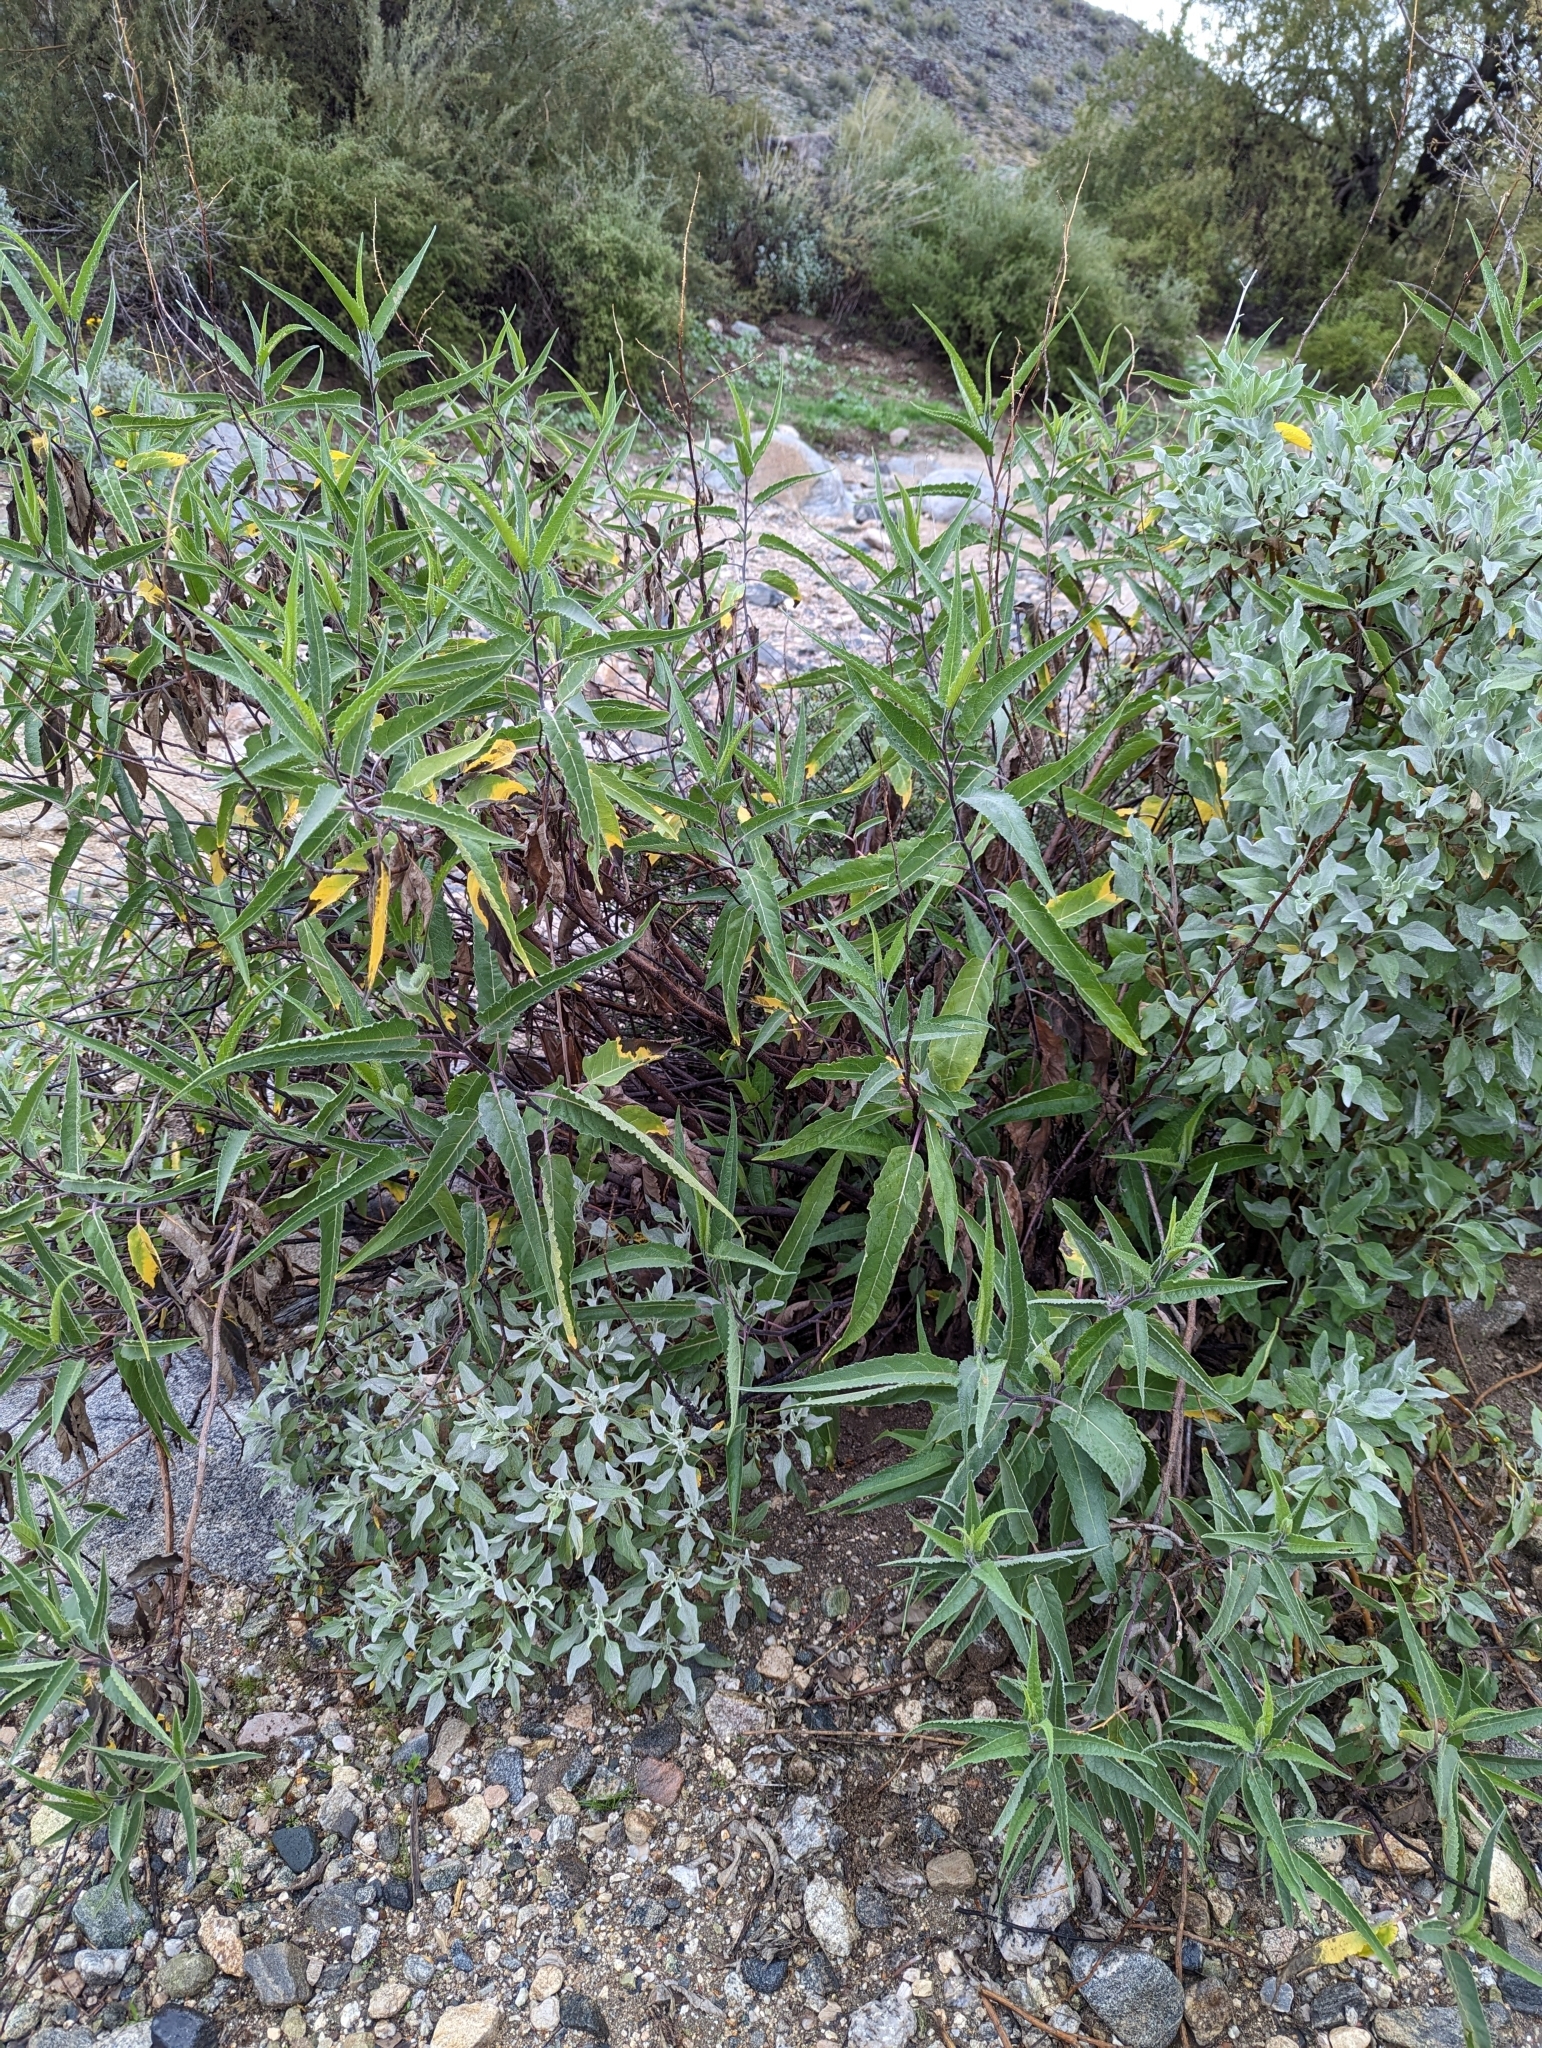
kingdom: Plantae
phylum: Tracheophyta
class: Magnoliopsida
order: Asterales
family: Asteraceae
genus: Ambrosia
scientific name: Ambrosia ambrosioides
